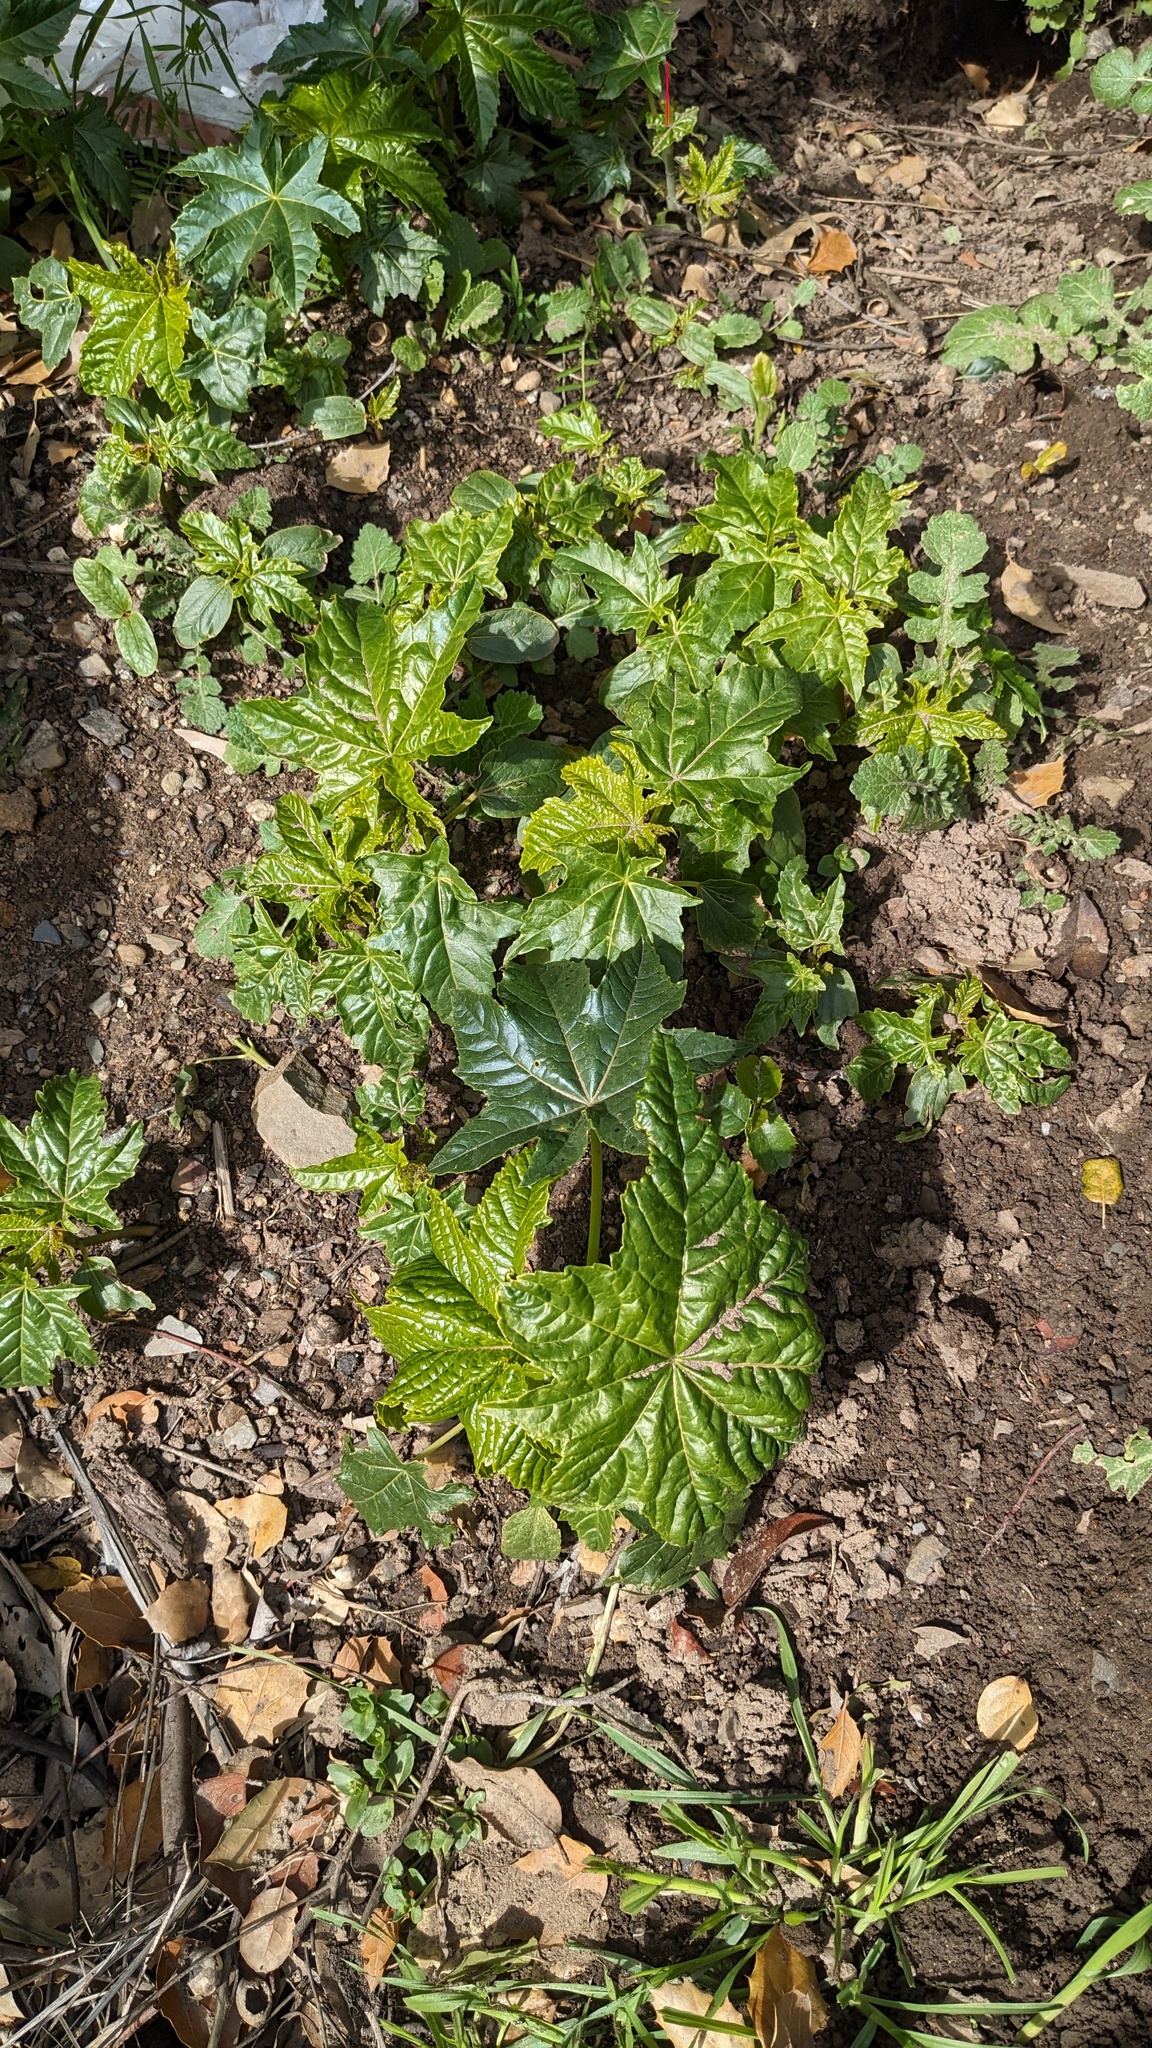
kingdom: Plantae
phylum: Tracheophyta
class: Magnoliopsida
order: Malpighiales
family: Euphorbiaceae
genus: Ricinus
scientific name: Ricinus communis
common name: Castor-oil-plant
